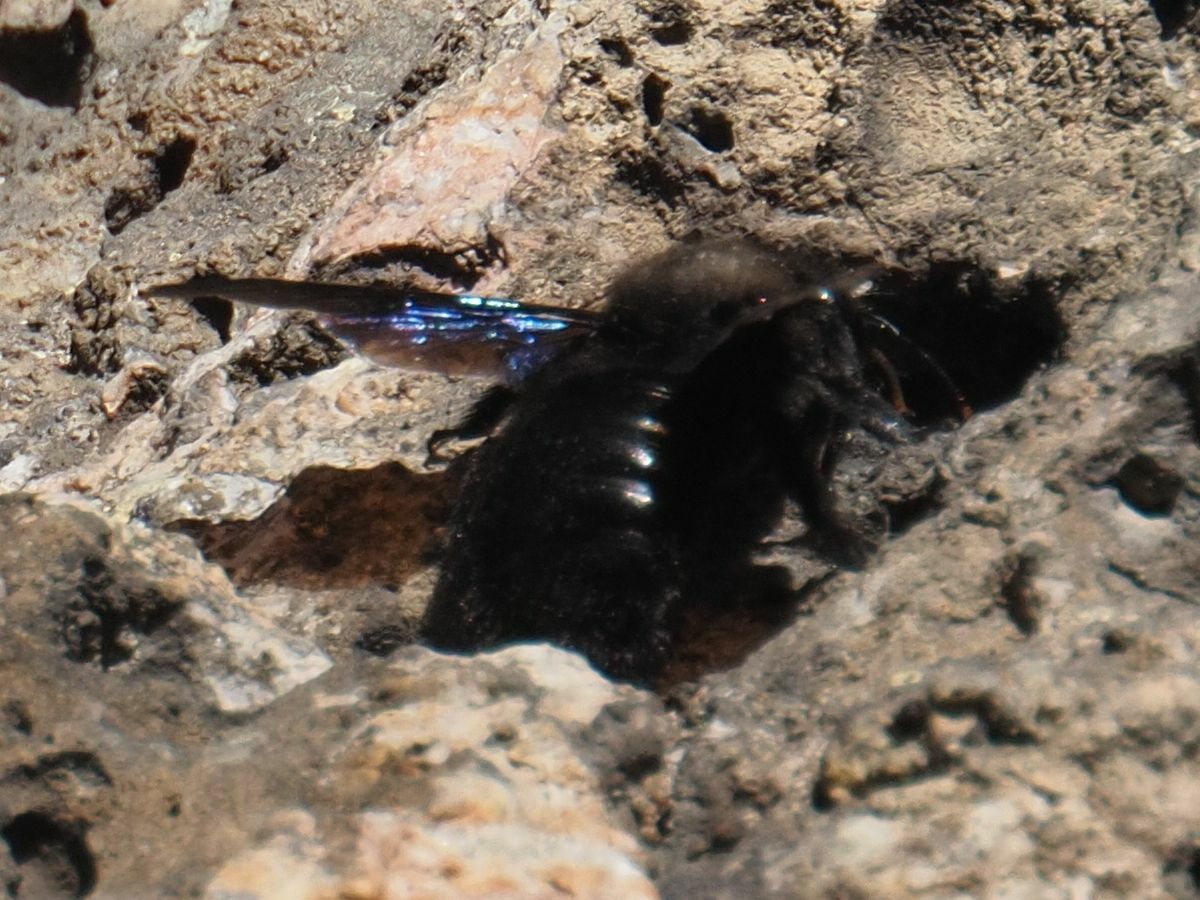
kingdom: Animalia
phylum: Arthropoda
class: Insecta
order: Hymenoptera
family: Apidae
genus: Xylocopa
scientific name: Xylocopa violacea
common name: Violet carpenter bee
